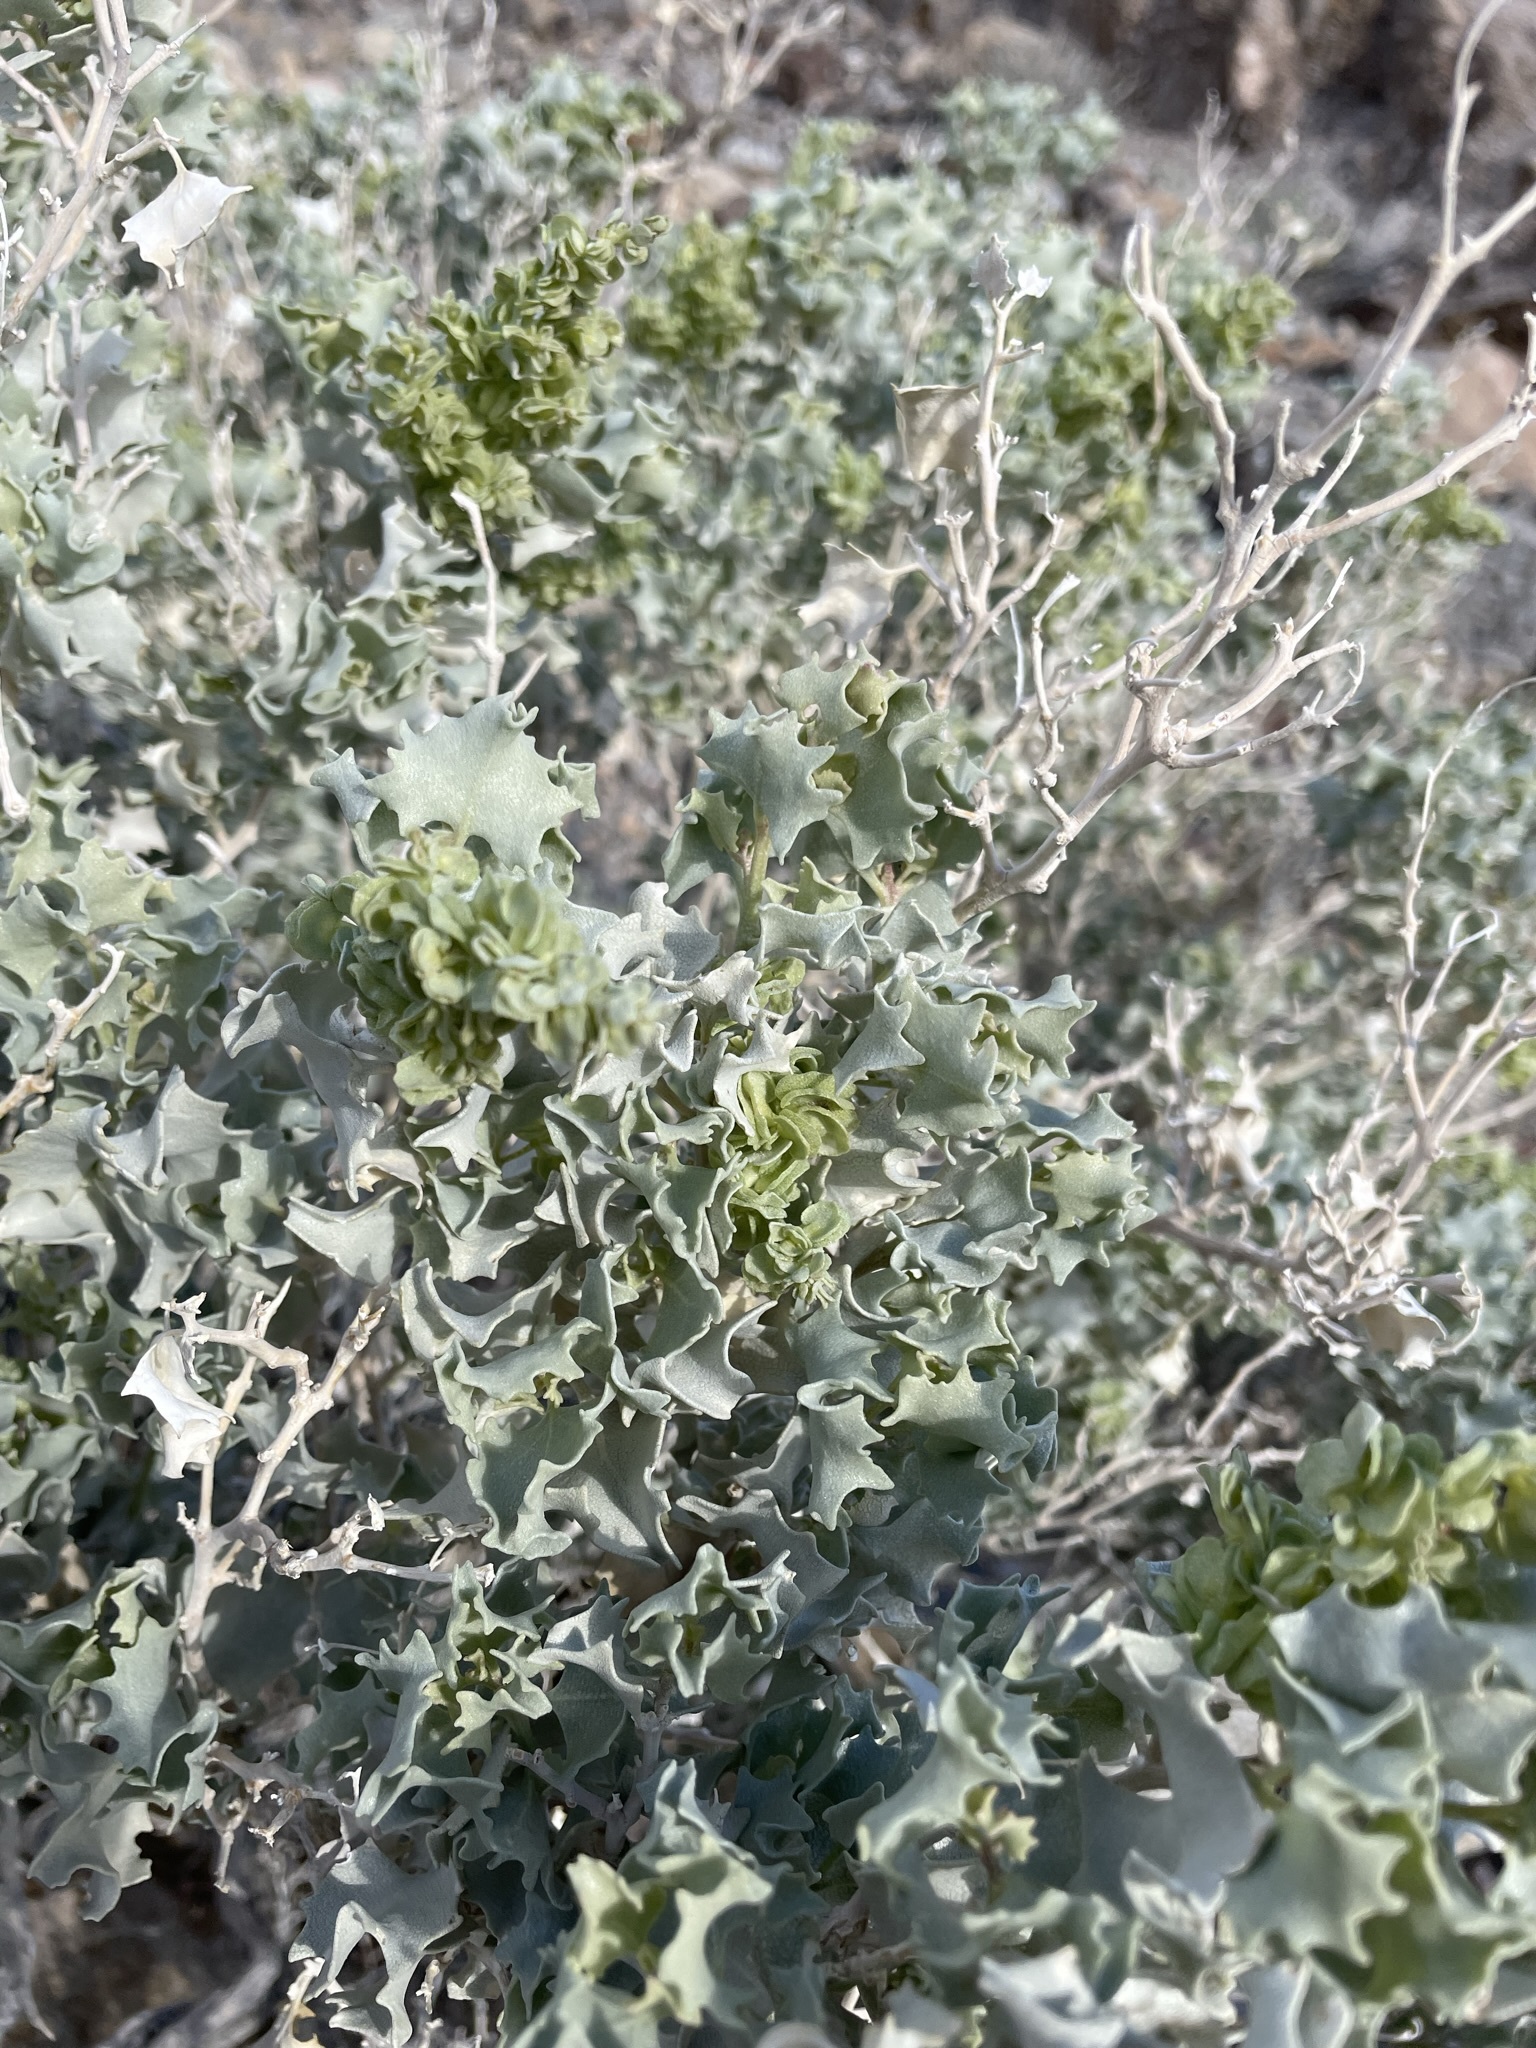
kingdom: Plantae
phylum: Tracheophyta
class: Magnoliopsida
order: Caryophyllales
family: Amaranthaceae
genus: Atriplex
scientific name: Atriplex hymenelytra
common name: Desert-holly
